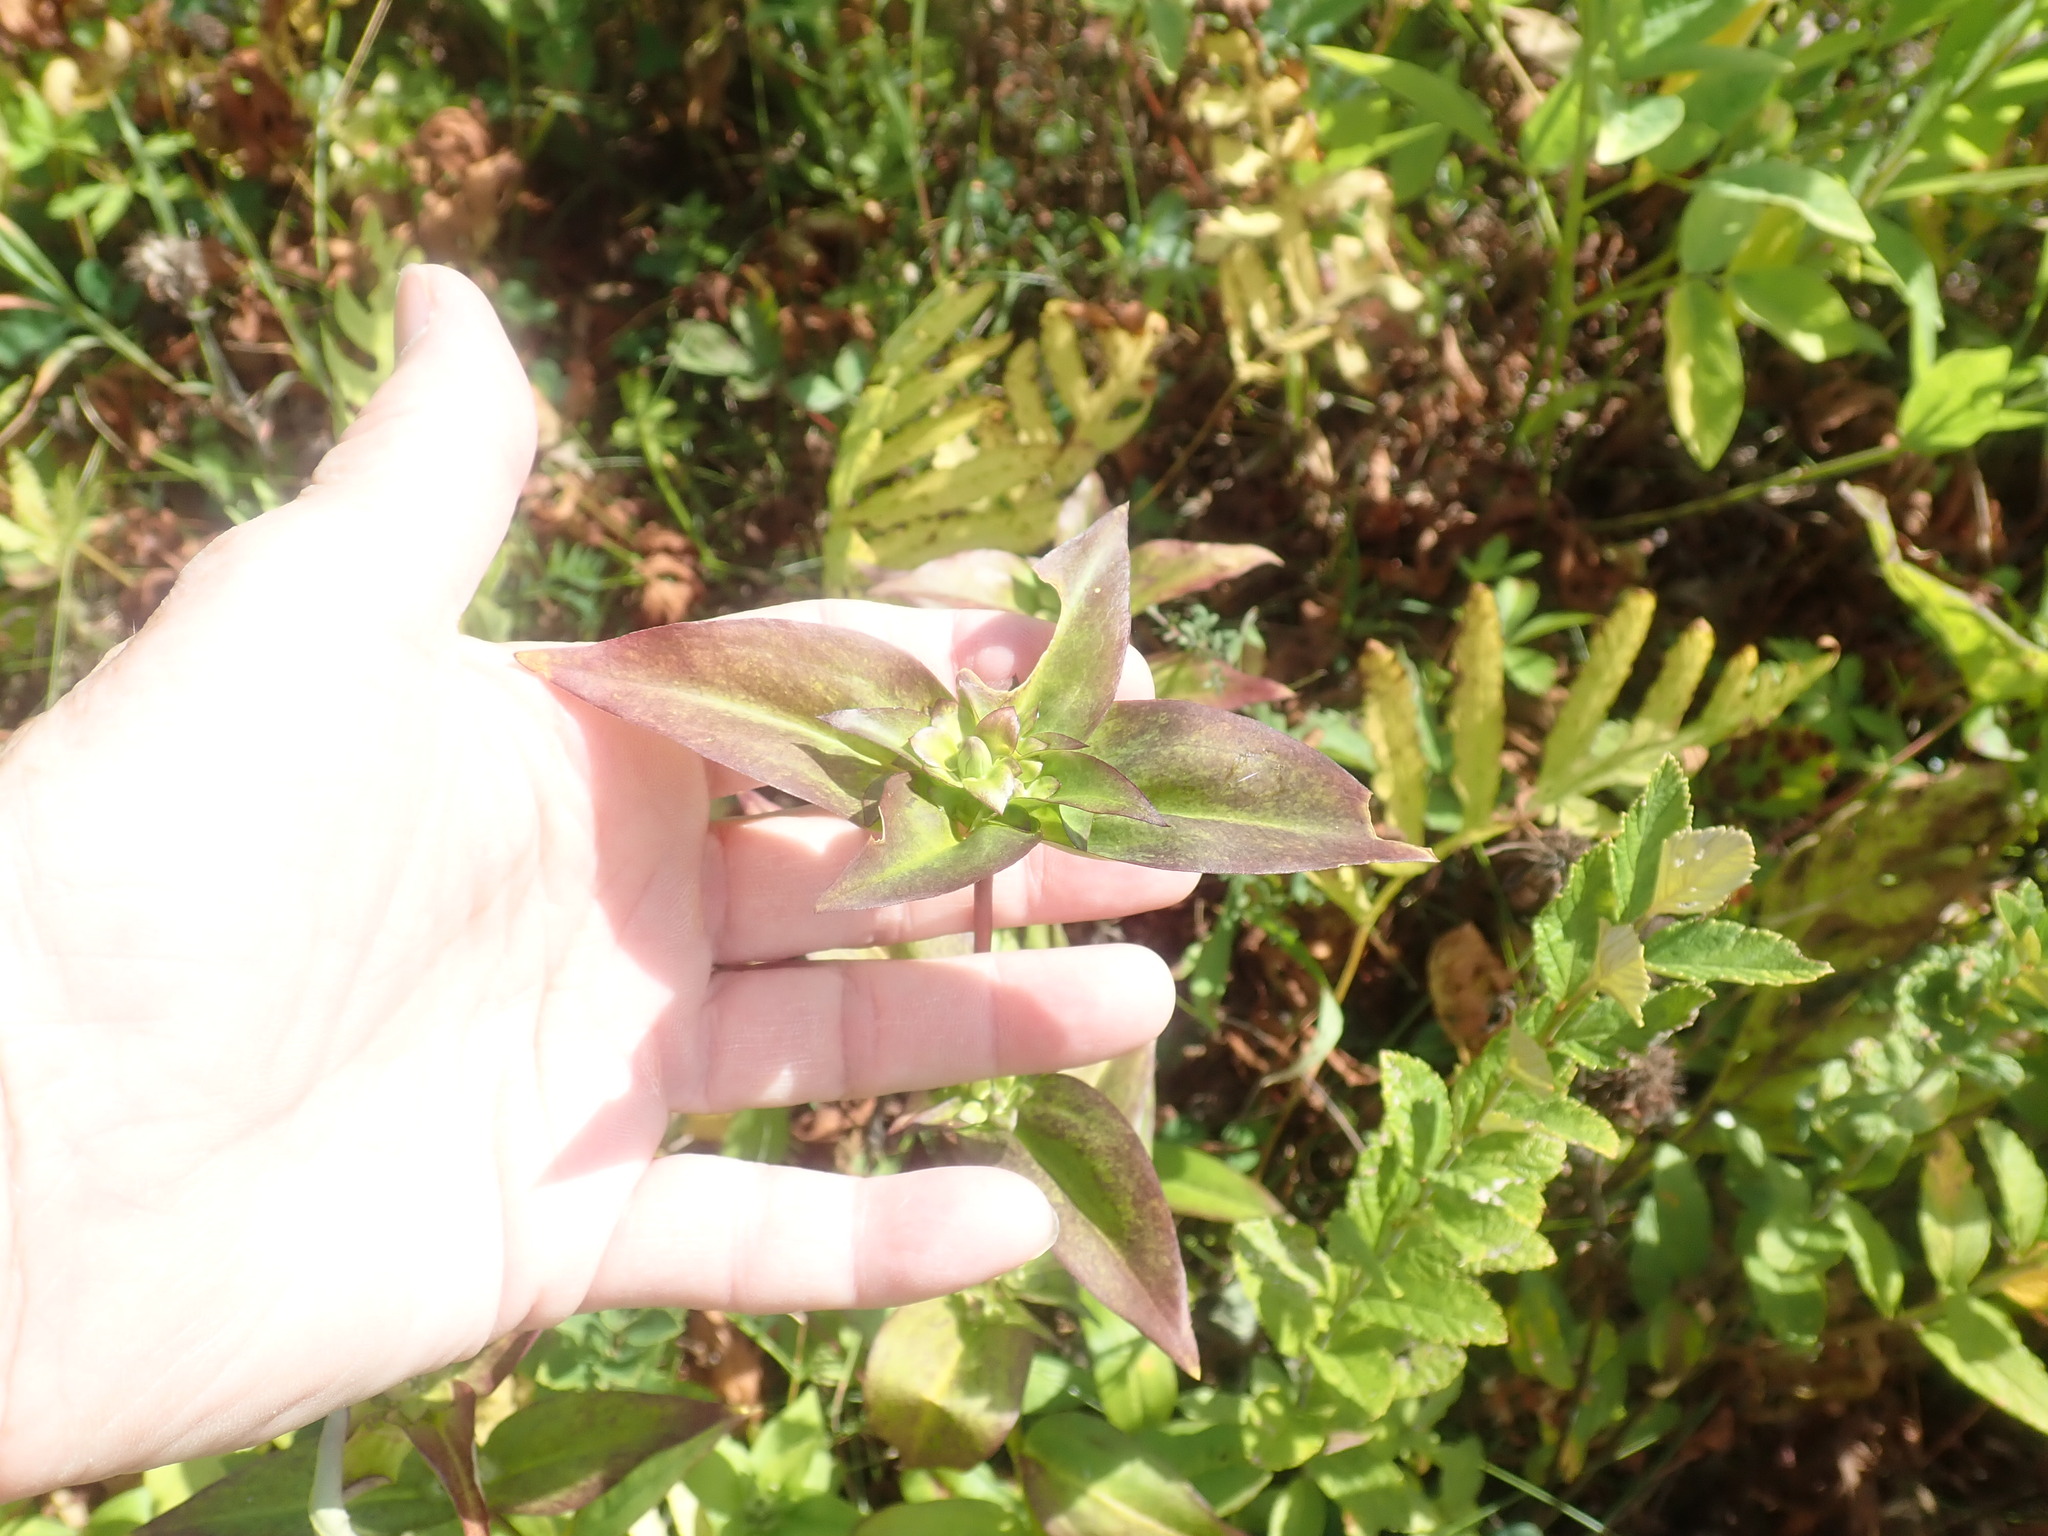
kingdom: Plantae
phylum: Tracheophyta
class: Magnoliopsida
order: Gentianales
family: Gentianaceae
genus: Gentiana
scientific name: Gentiana clausa
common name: Blind gentian
